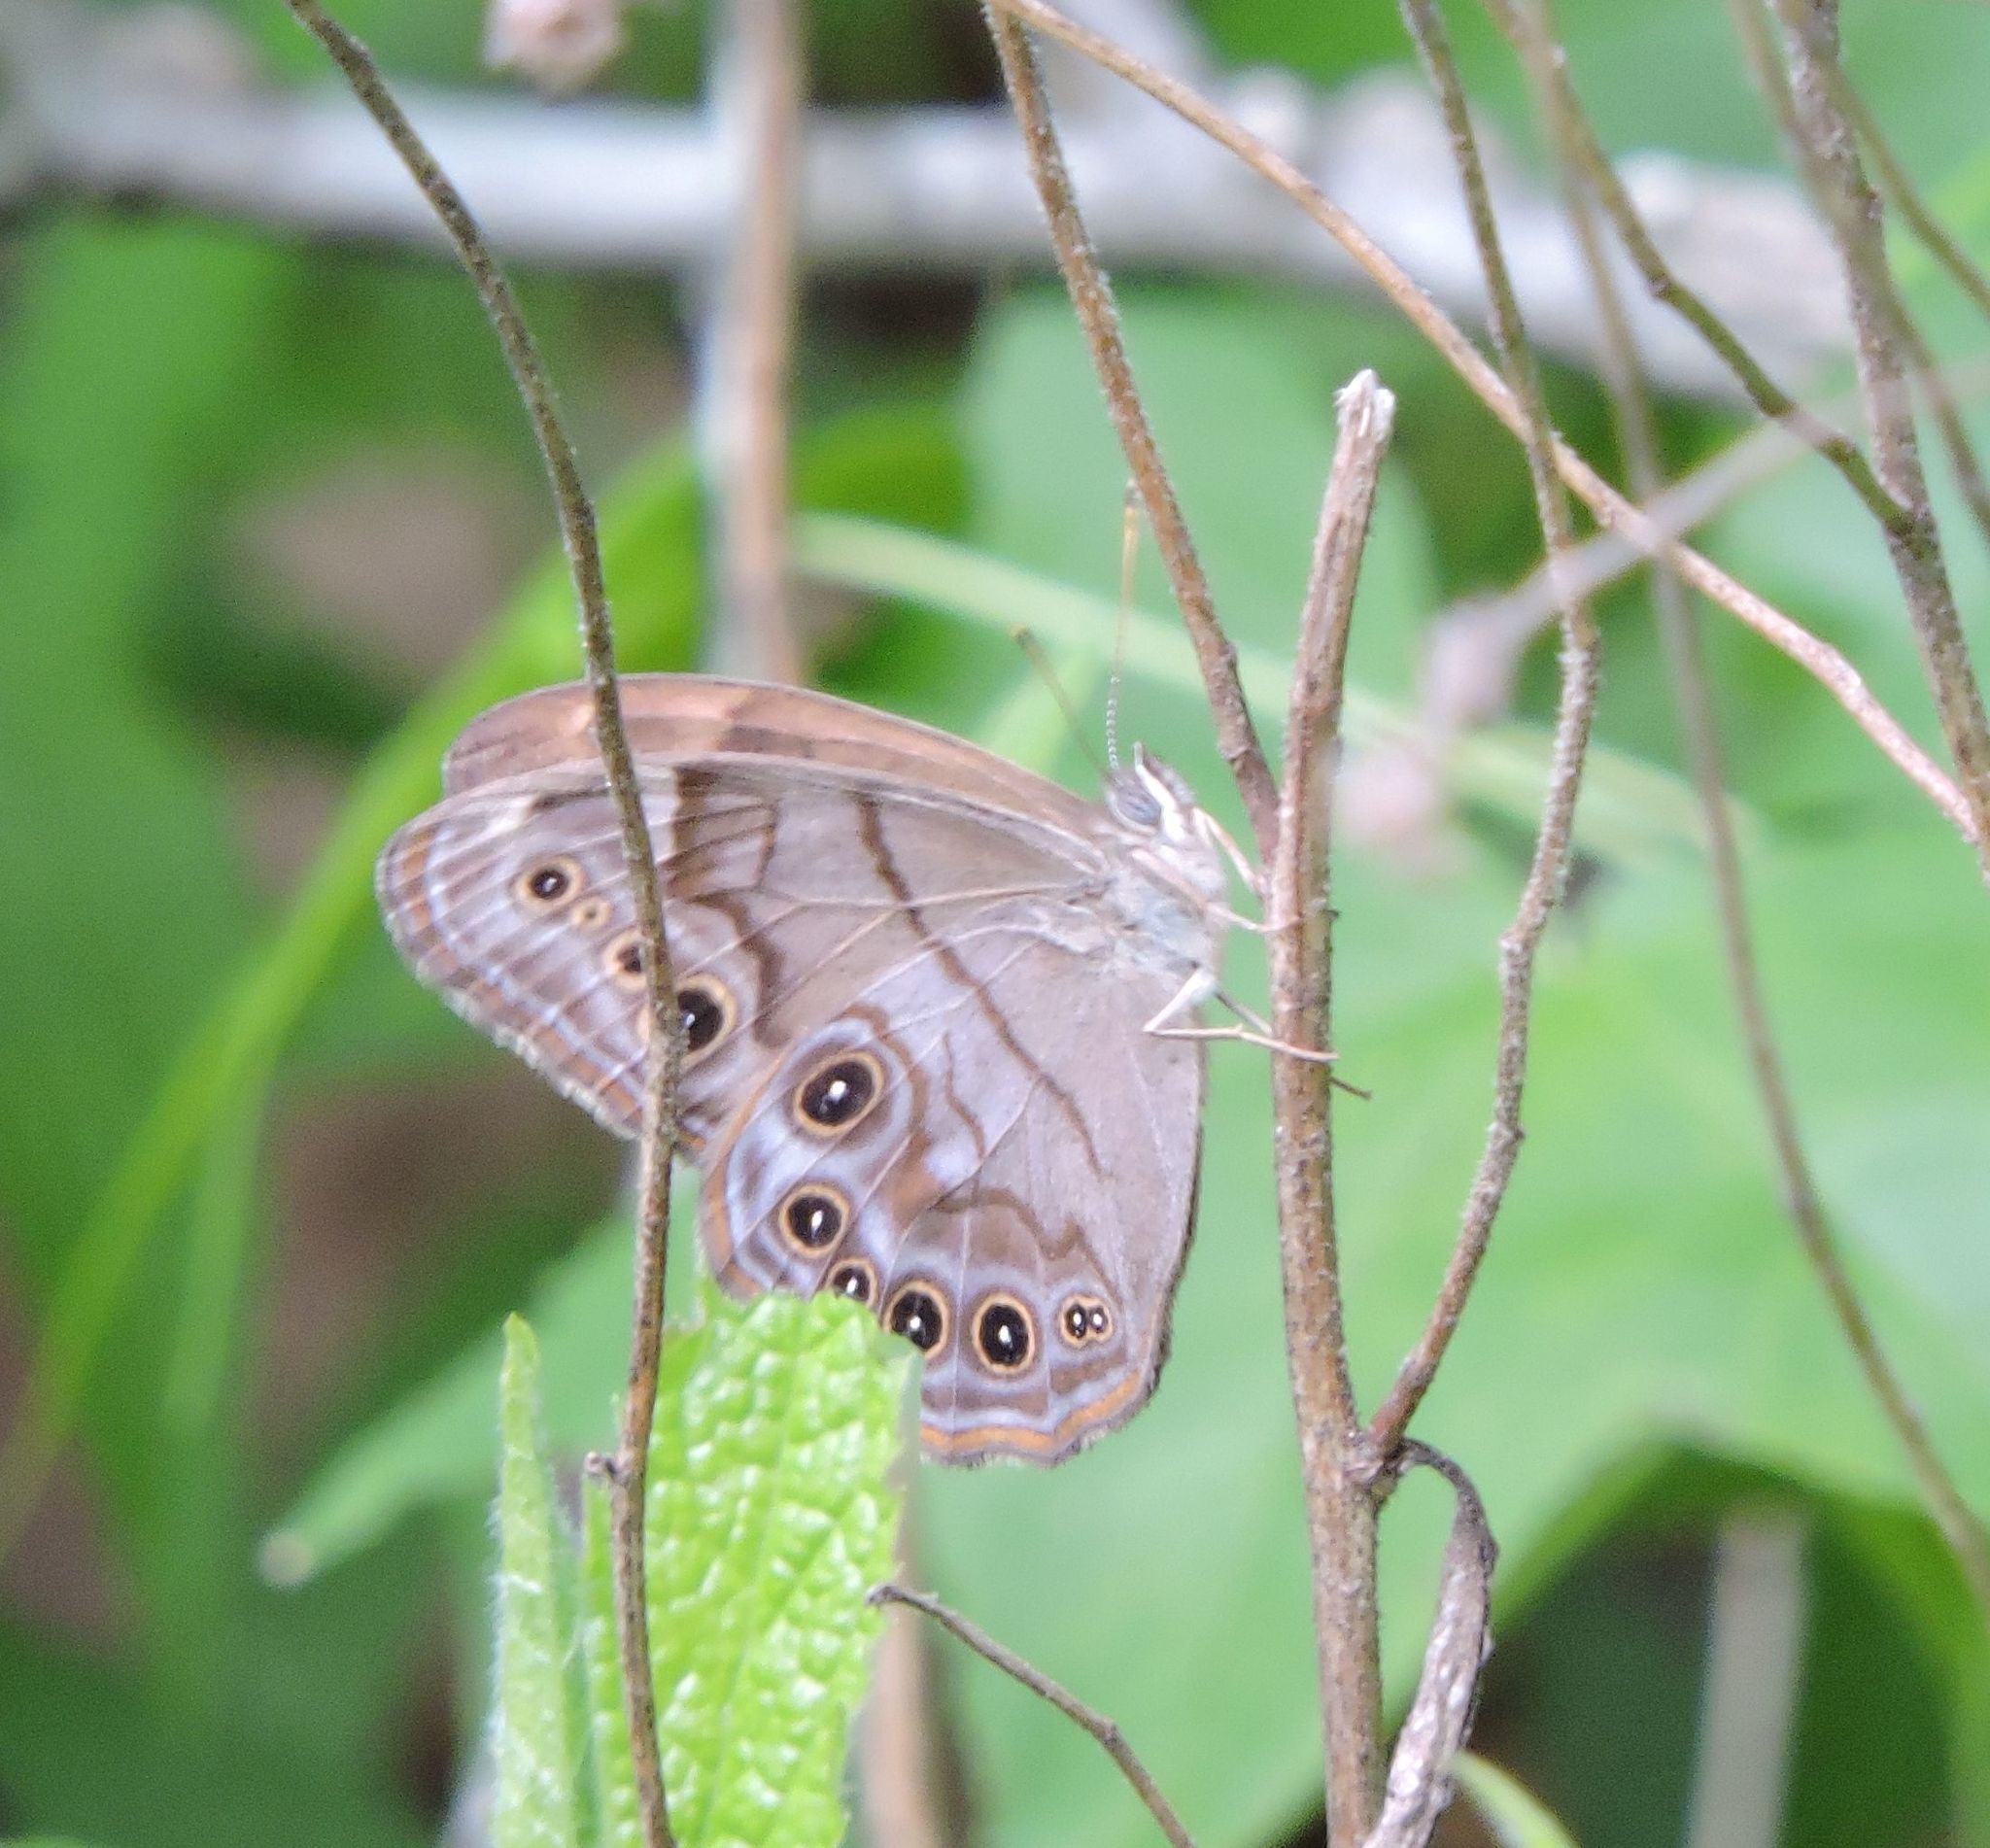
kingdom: Animalia
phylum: Arthropoda
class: Insecta
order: Lepidoptera
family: Nymphalidae
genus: Lethe
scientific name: Lethe anthedon
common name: Northern pearly-eye
